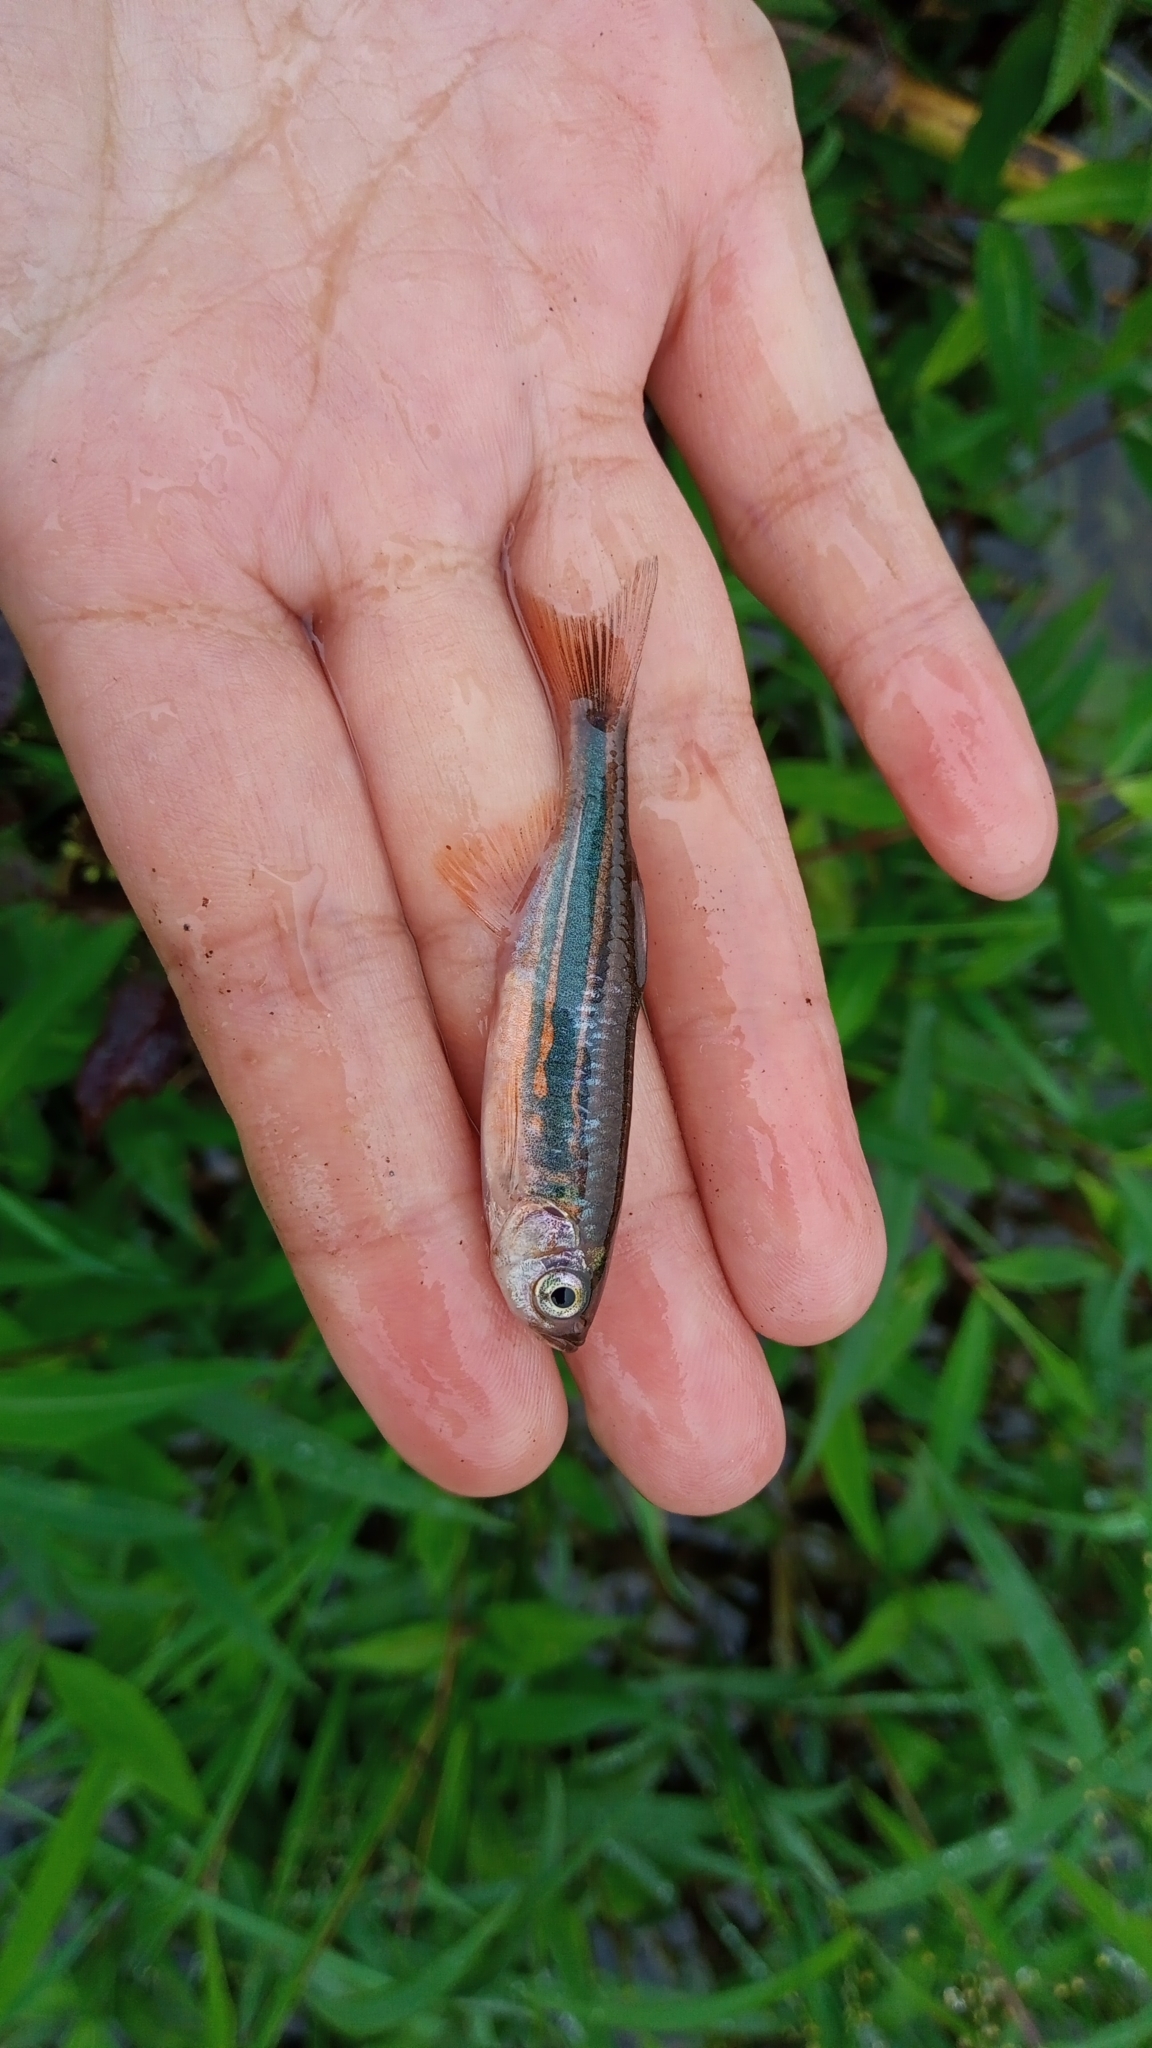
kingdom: Animalia
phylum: Chordata
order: Cypriniformes
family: Cyprinidae
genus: Devario
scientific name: Devario aequipinnatus
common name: Giant danio
